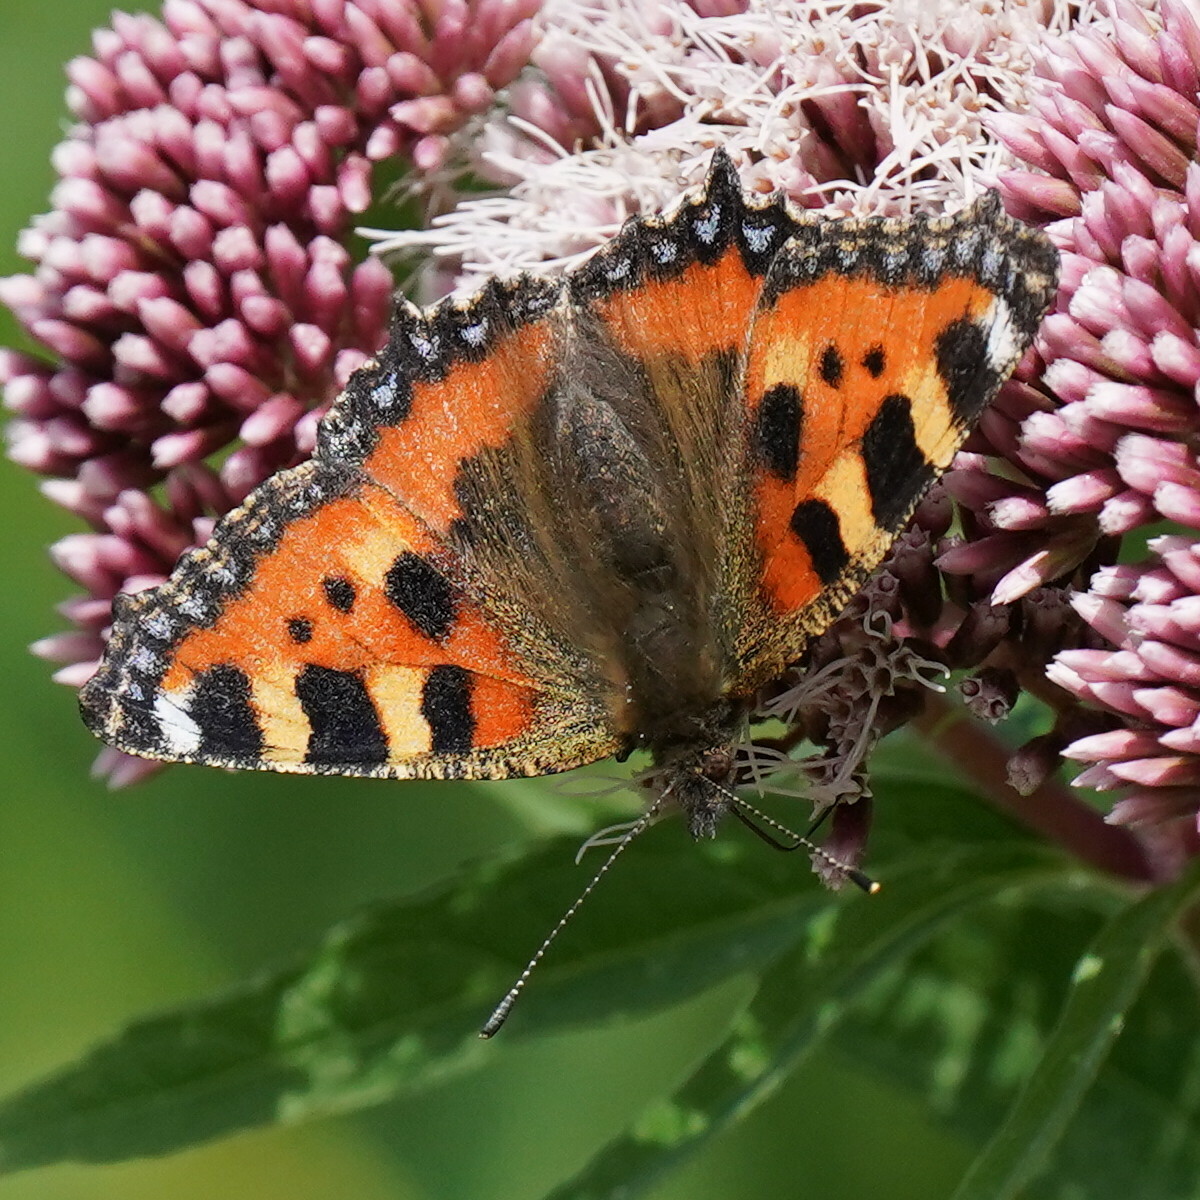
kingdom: Animalia
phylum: Arthropoda
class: Insecta
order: Lepidoptera
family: Nymphalidae
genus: Aglais
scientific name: Aglais urticae
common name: Small tortoiseshell
